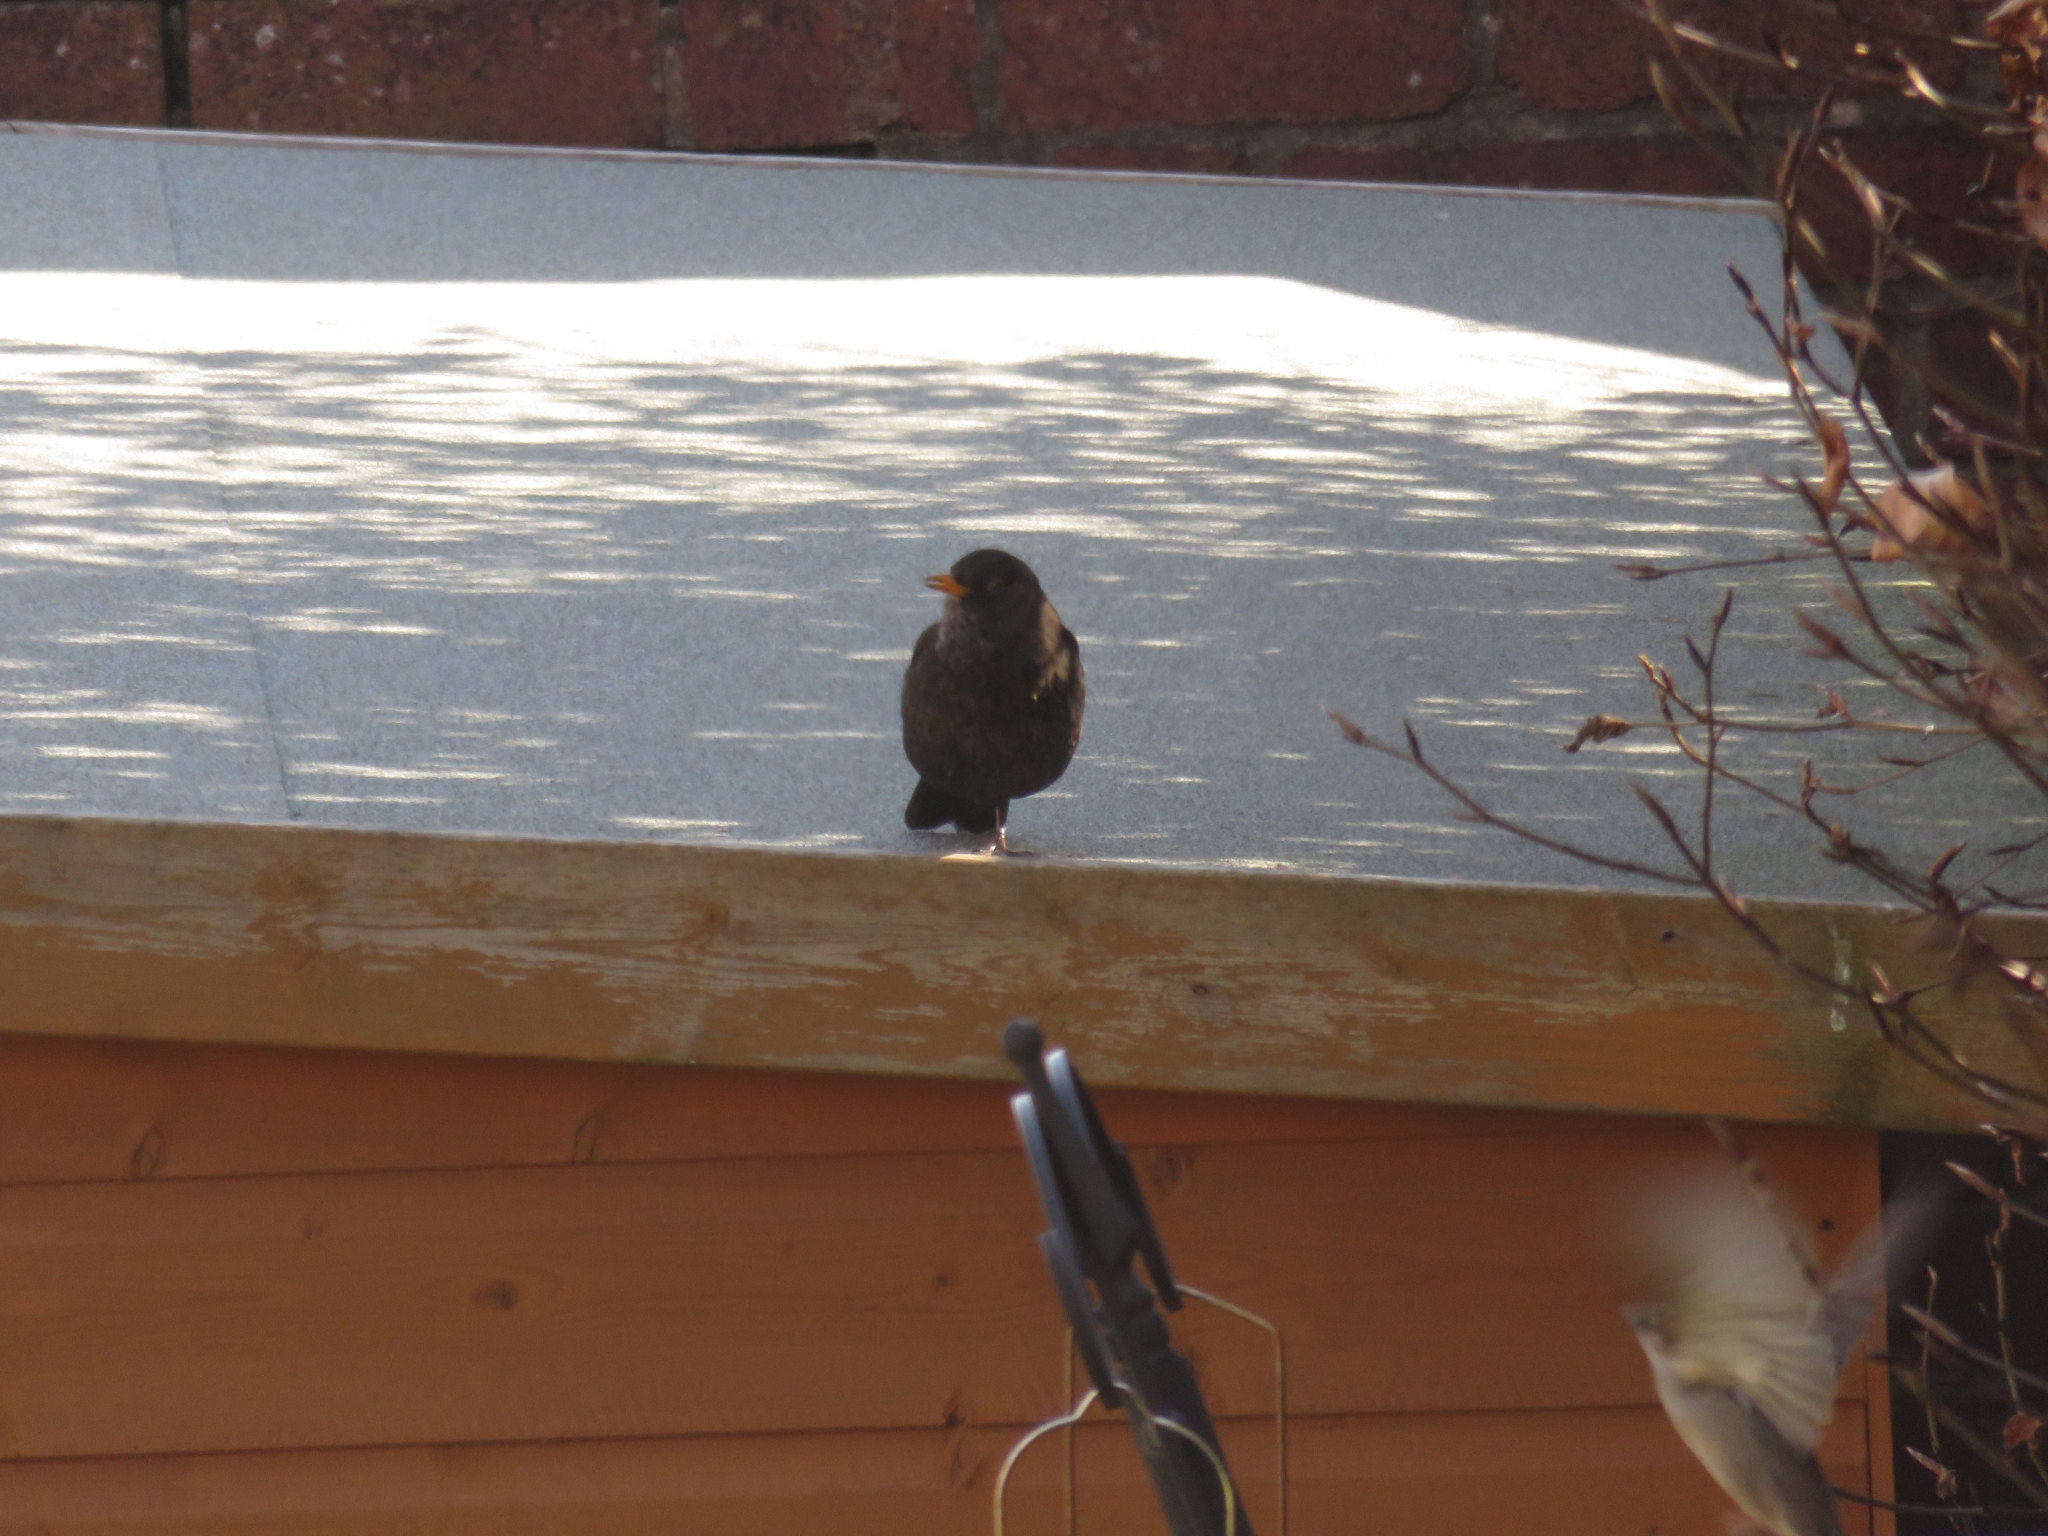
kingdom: Animalia
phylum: Chordata
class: Aves
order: Passeriformes
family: Turdidae
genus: Turdus
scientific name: Turdus merula
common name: Common blackbird
